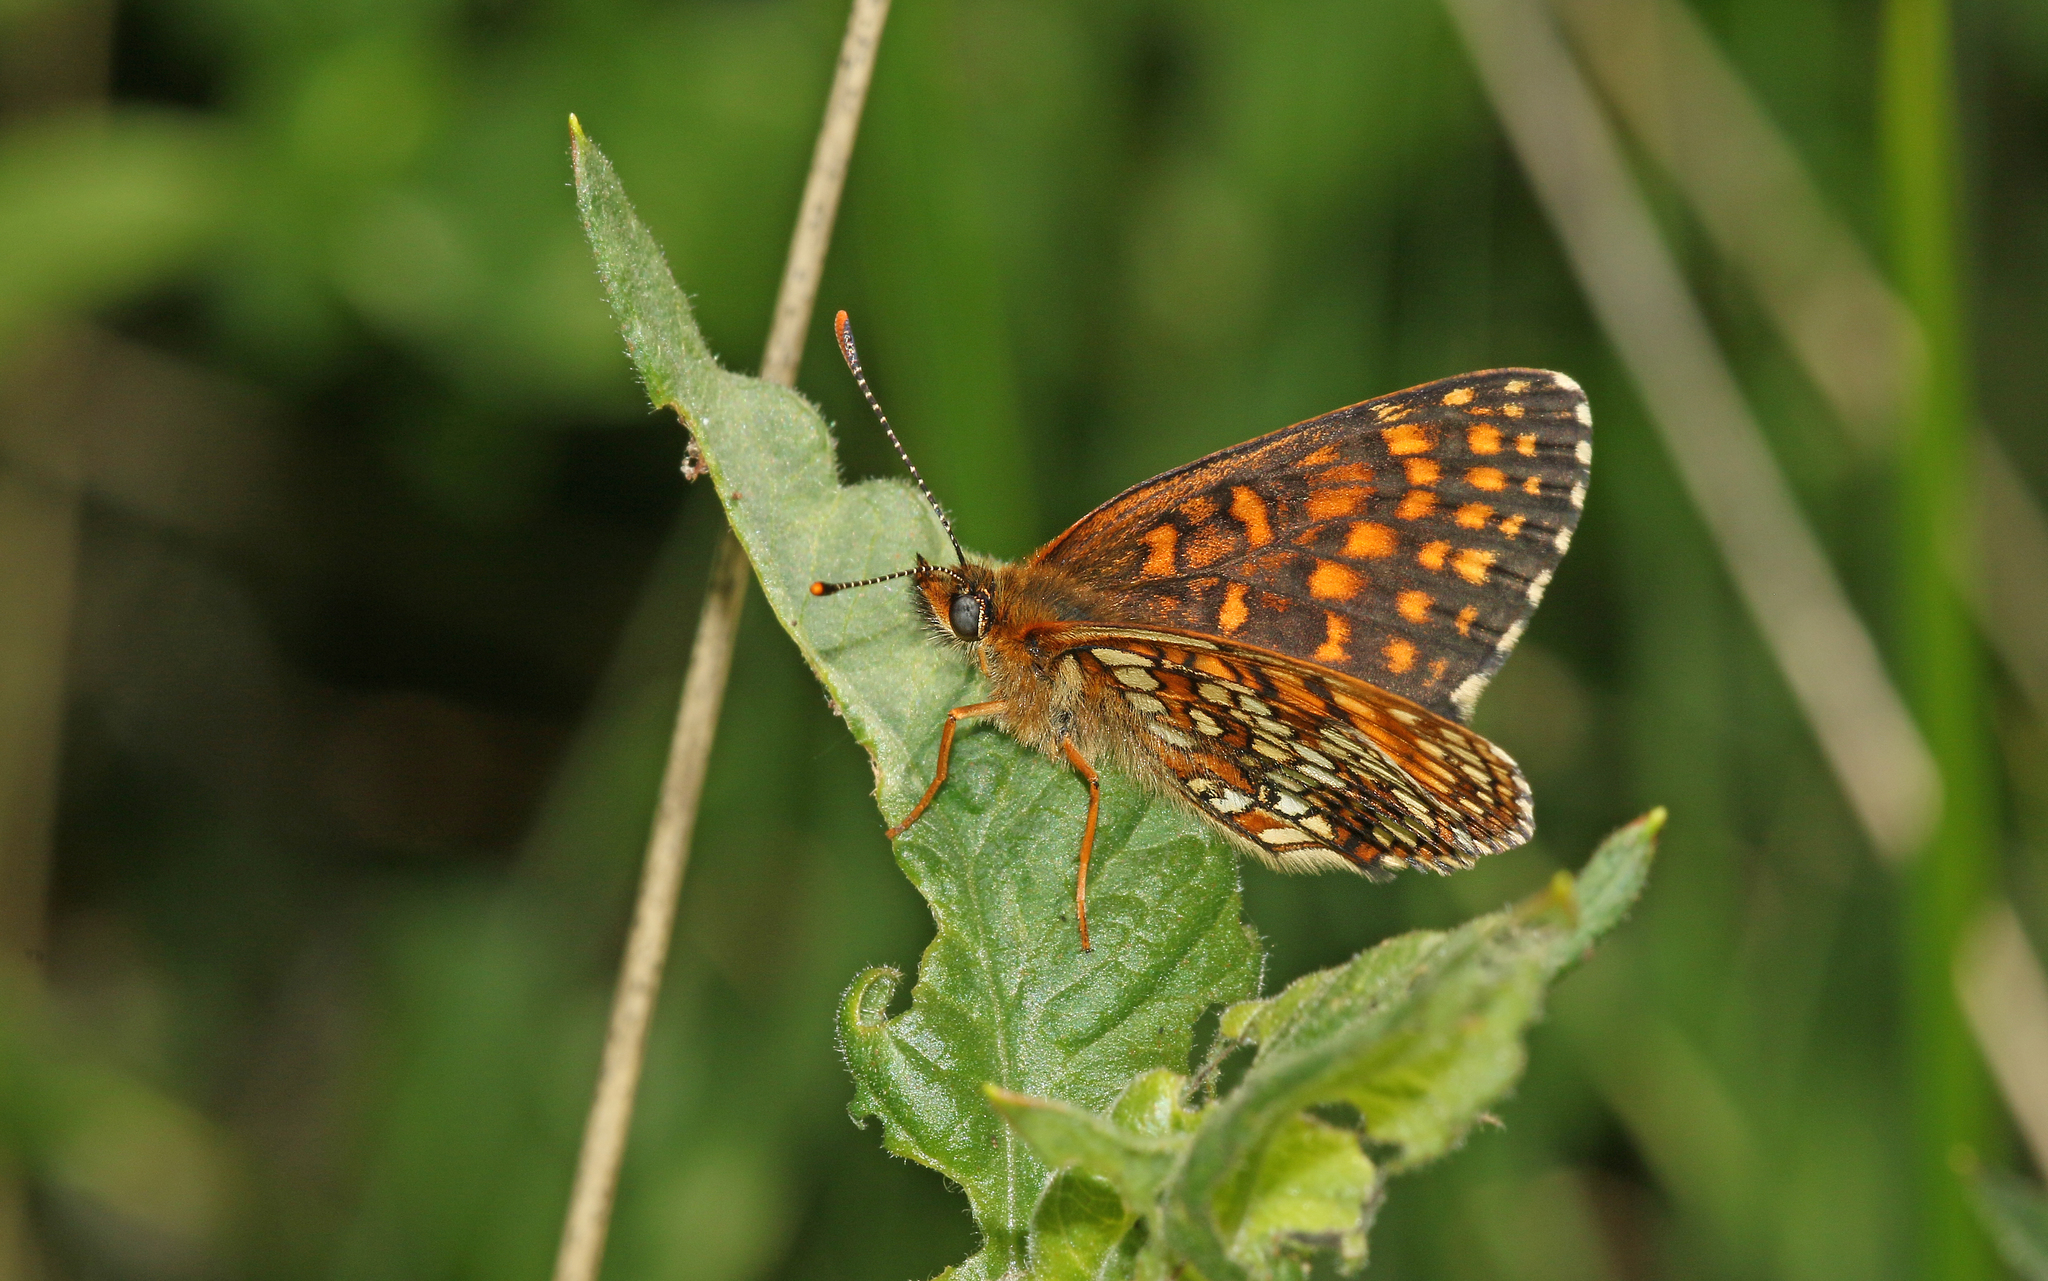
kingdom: Animalia
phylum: Arthropoda
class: Insecta
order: Lepidoptera
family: Nymphalidae
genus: Melitaea
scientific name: Melitaea diamina
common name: False heath fritillary
